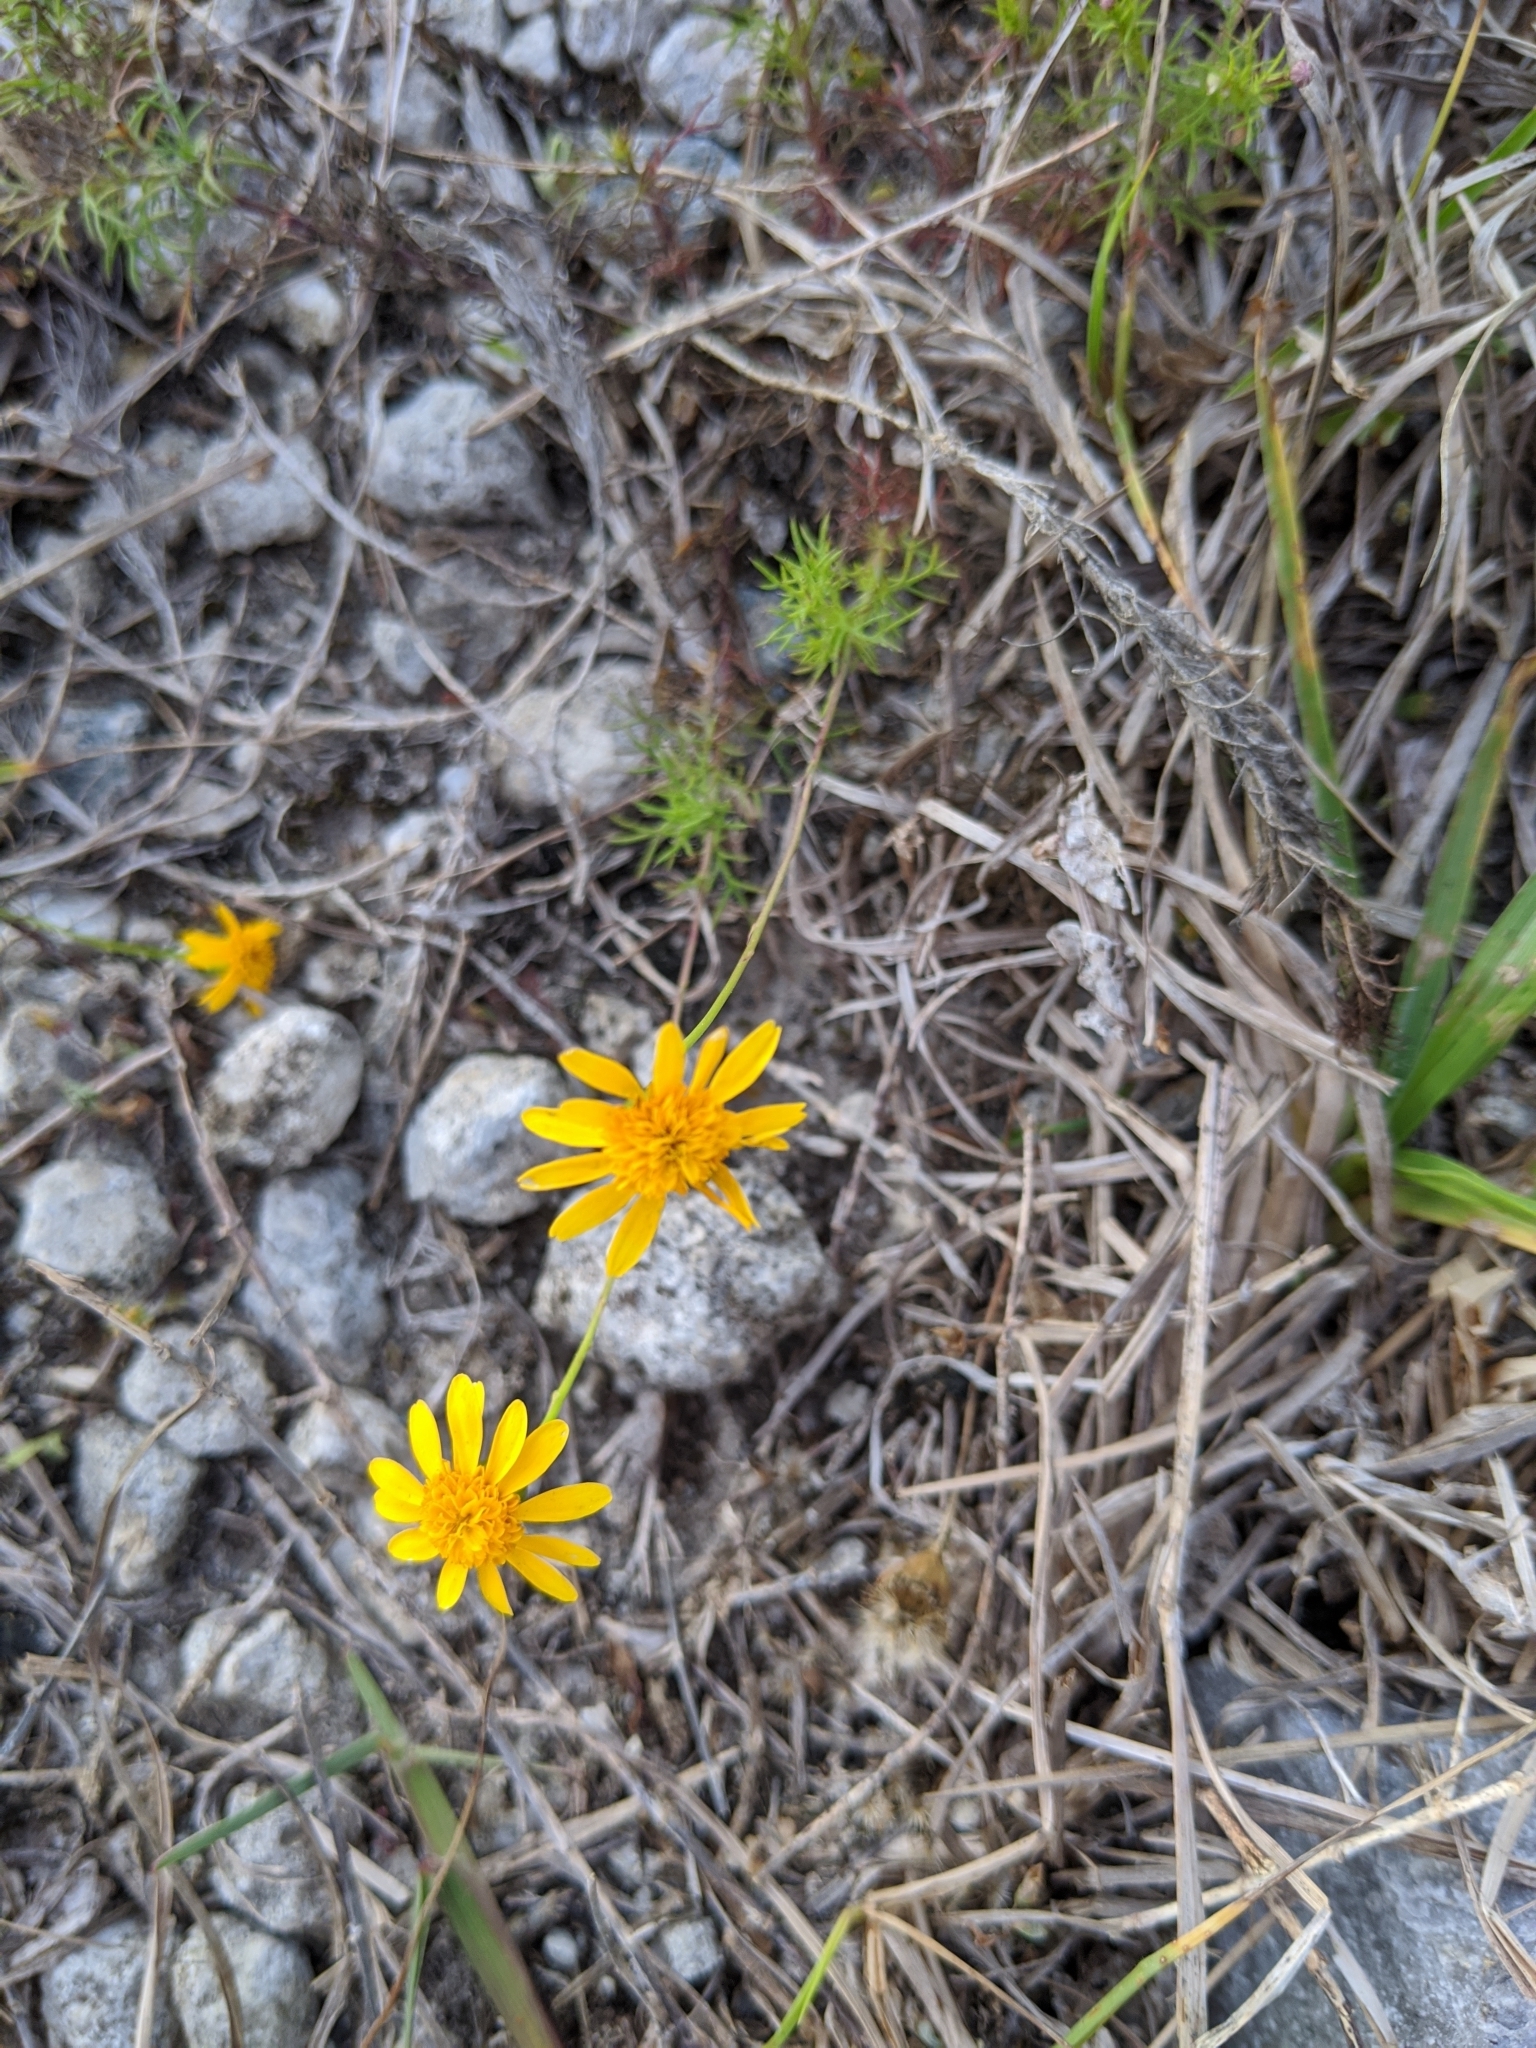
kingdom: Plantae
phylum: Tracheophyta
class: Magnoliopsida
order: Asterales
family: Asteraceae
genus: Thymophylla
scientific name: Thymophylla tenuiloba
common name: Dahlberg's daisy
